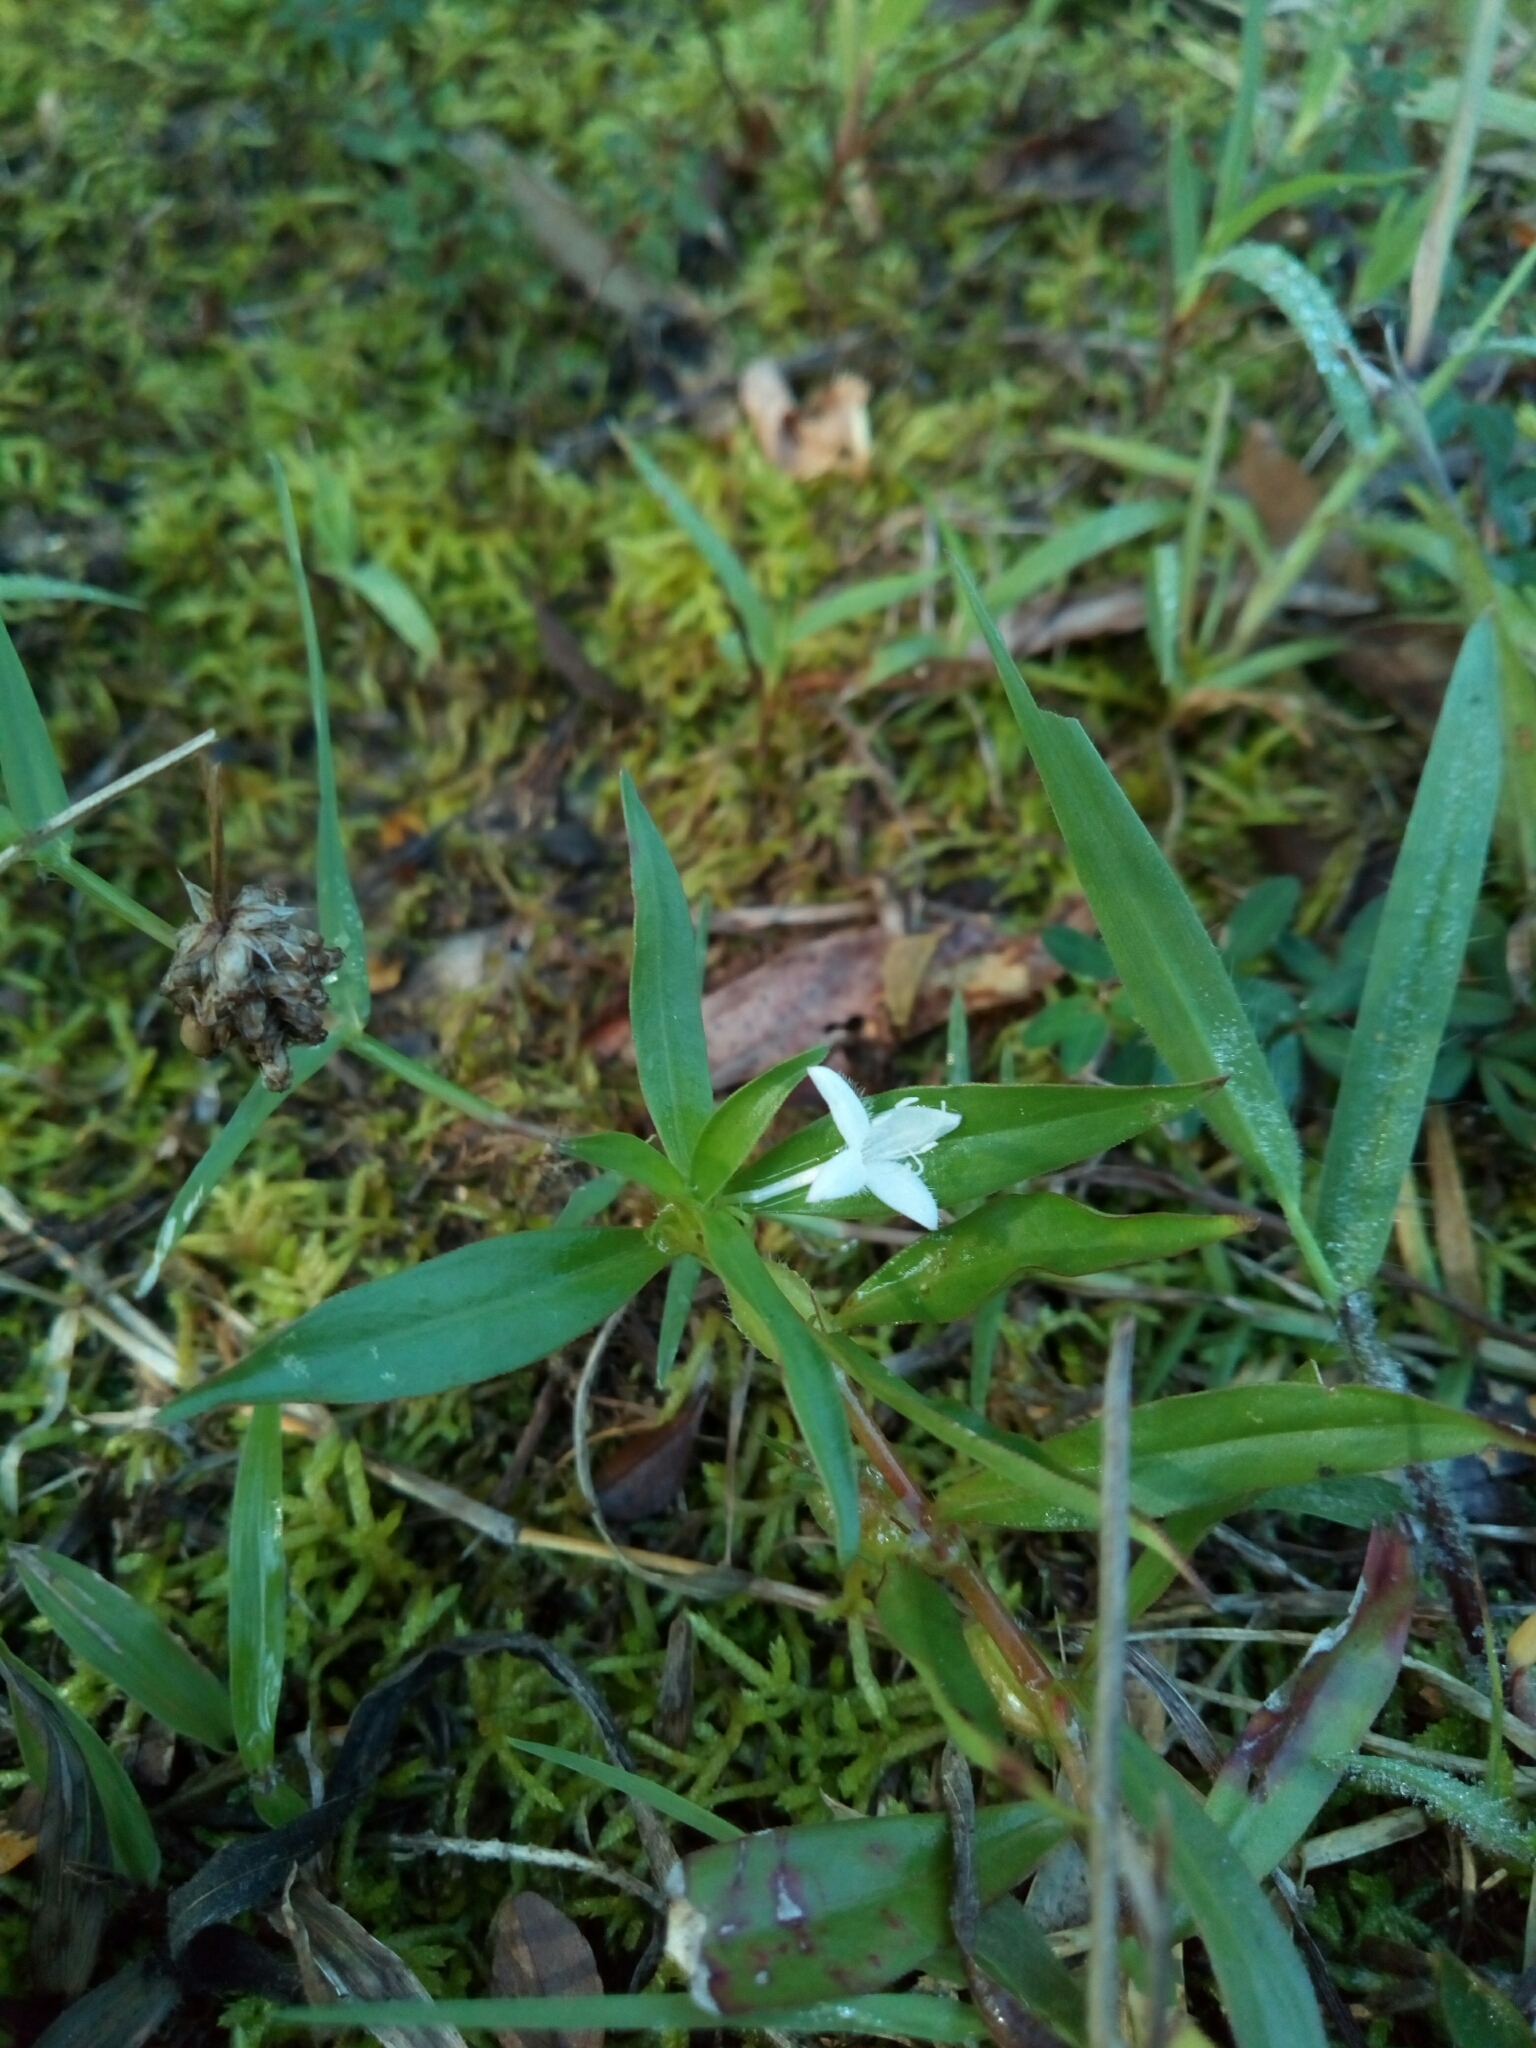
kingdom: Plantae
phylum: Tracheophyta
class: Magnoliopsida
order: Gentianales
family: Rubiaceae
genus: Diodia
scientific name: Diodia virginiana
